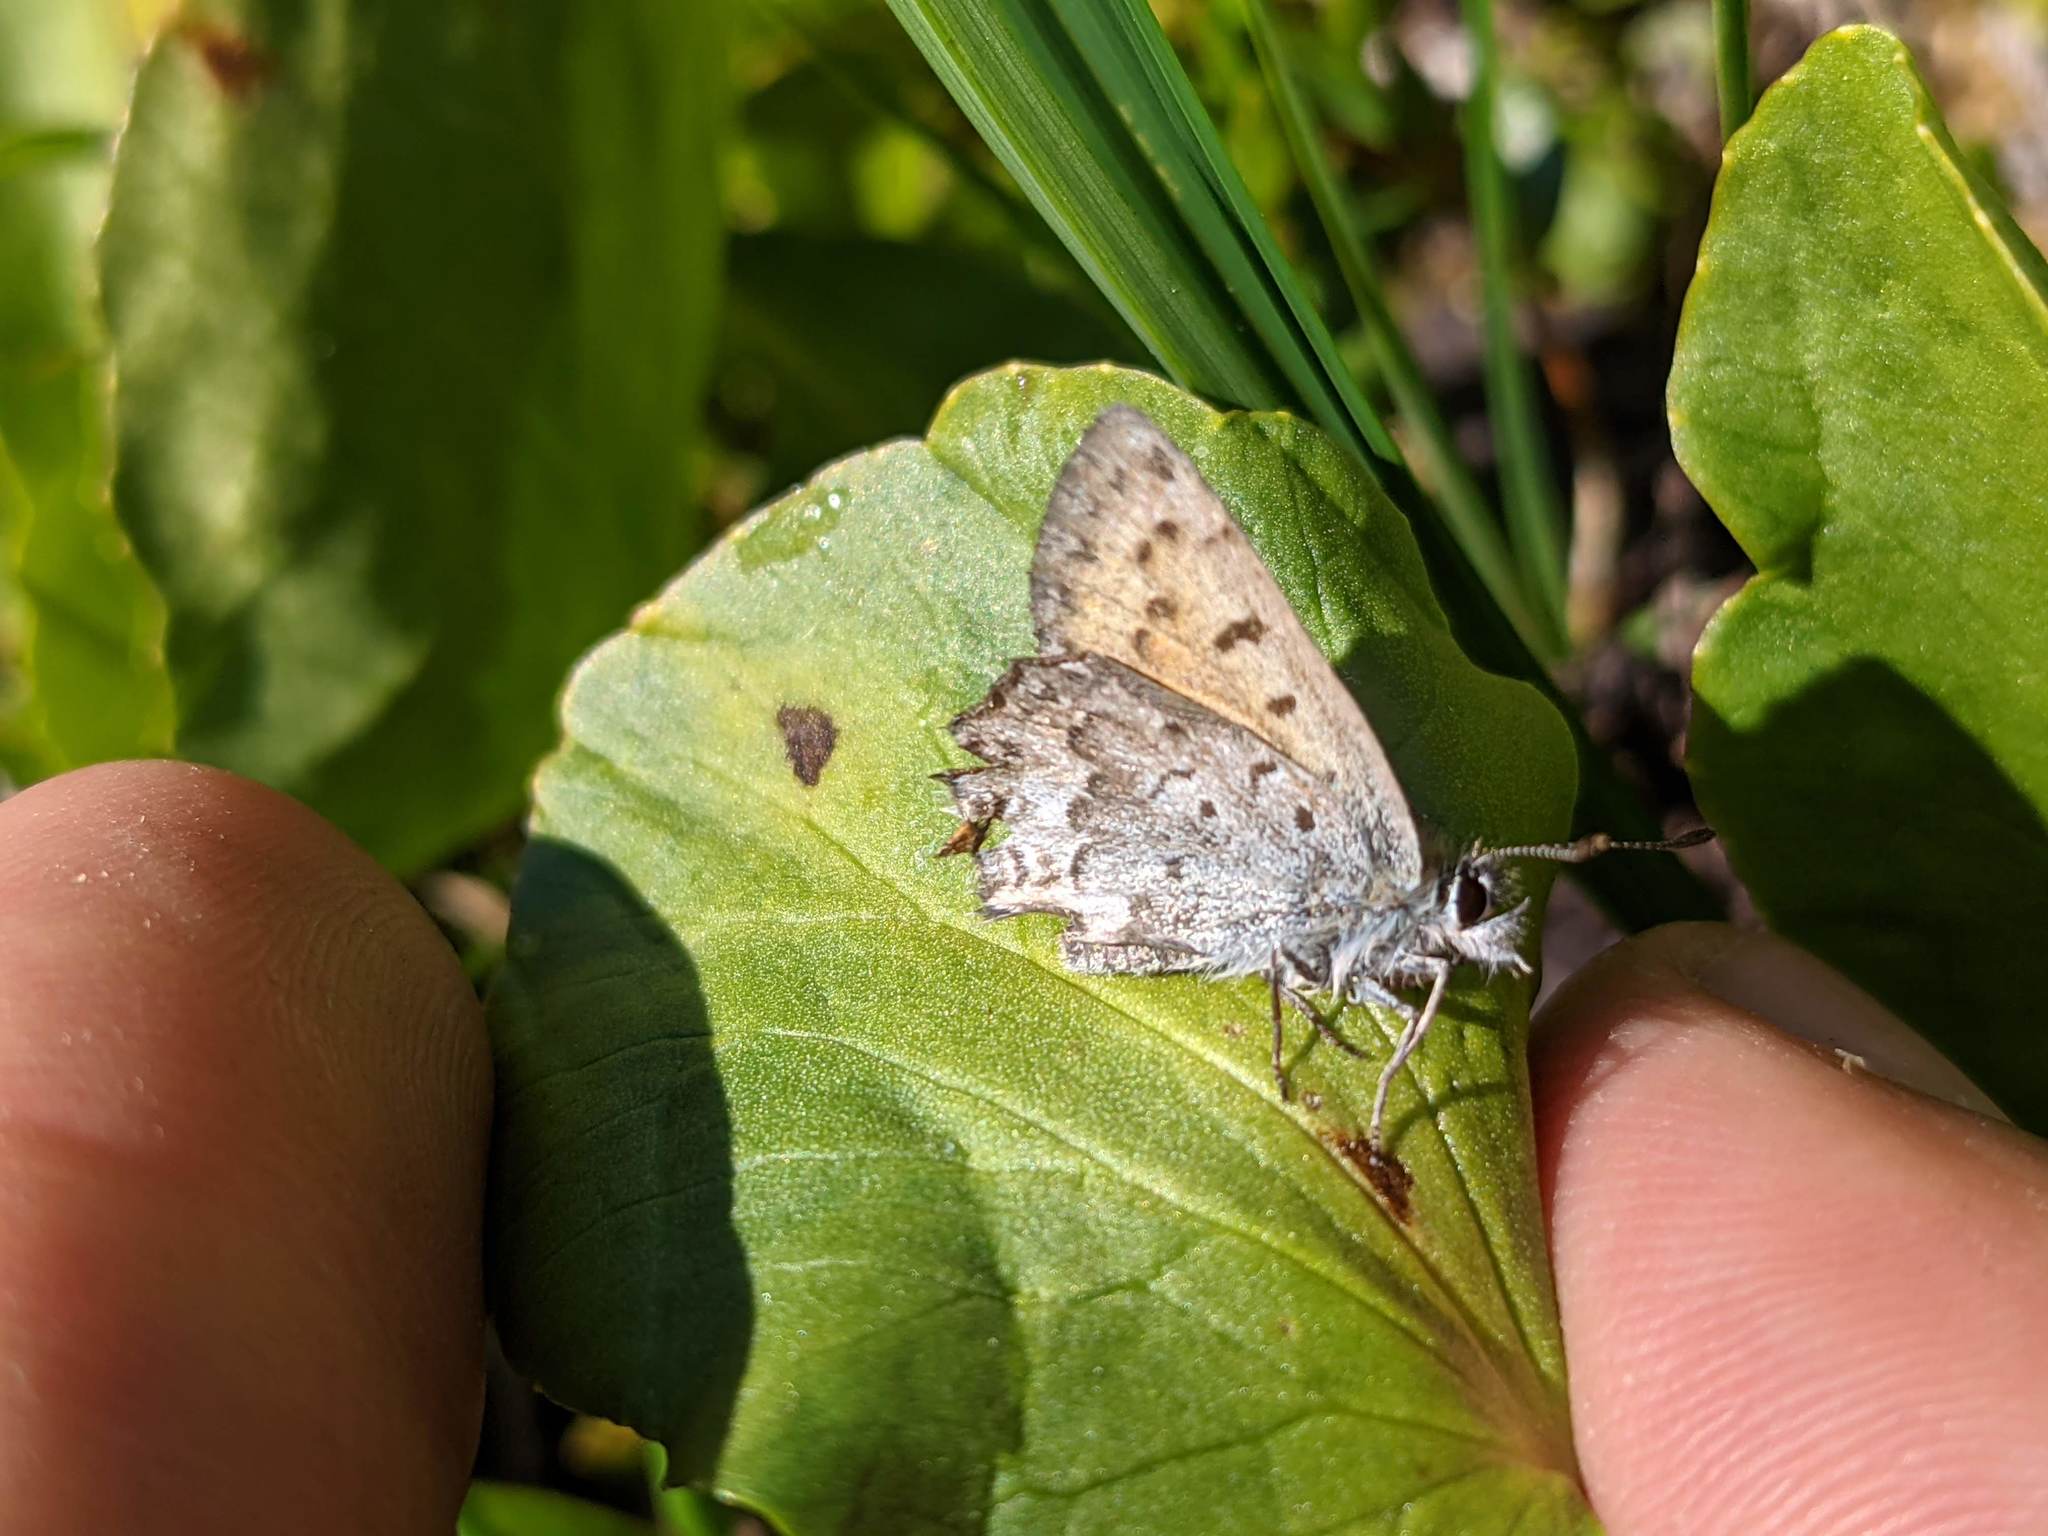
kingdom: Animalia
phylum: Arthropoda
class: Insecta
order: Lepidoptera
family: Lycaenidae
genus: Tharsalea
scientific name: Tharsalea mariposa
